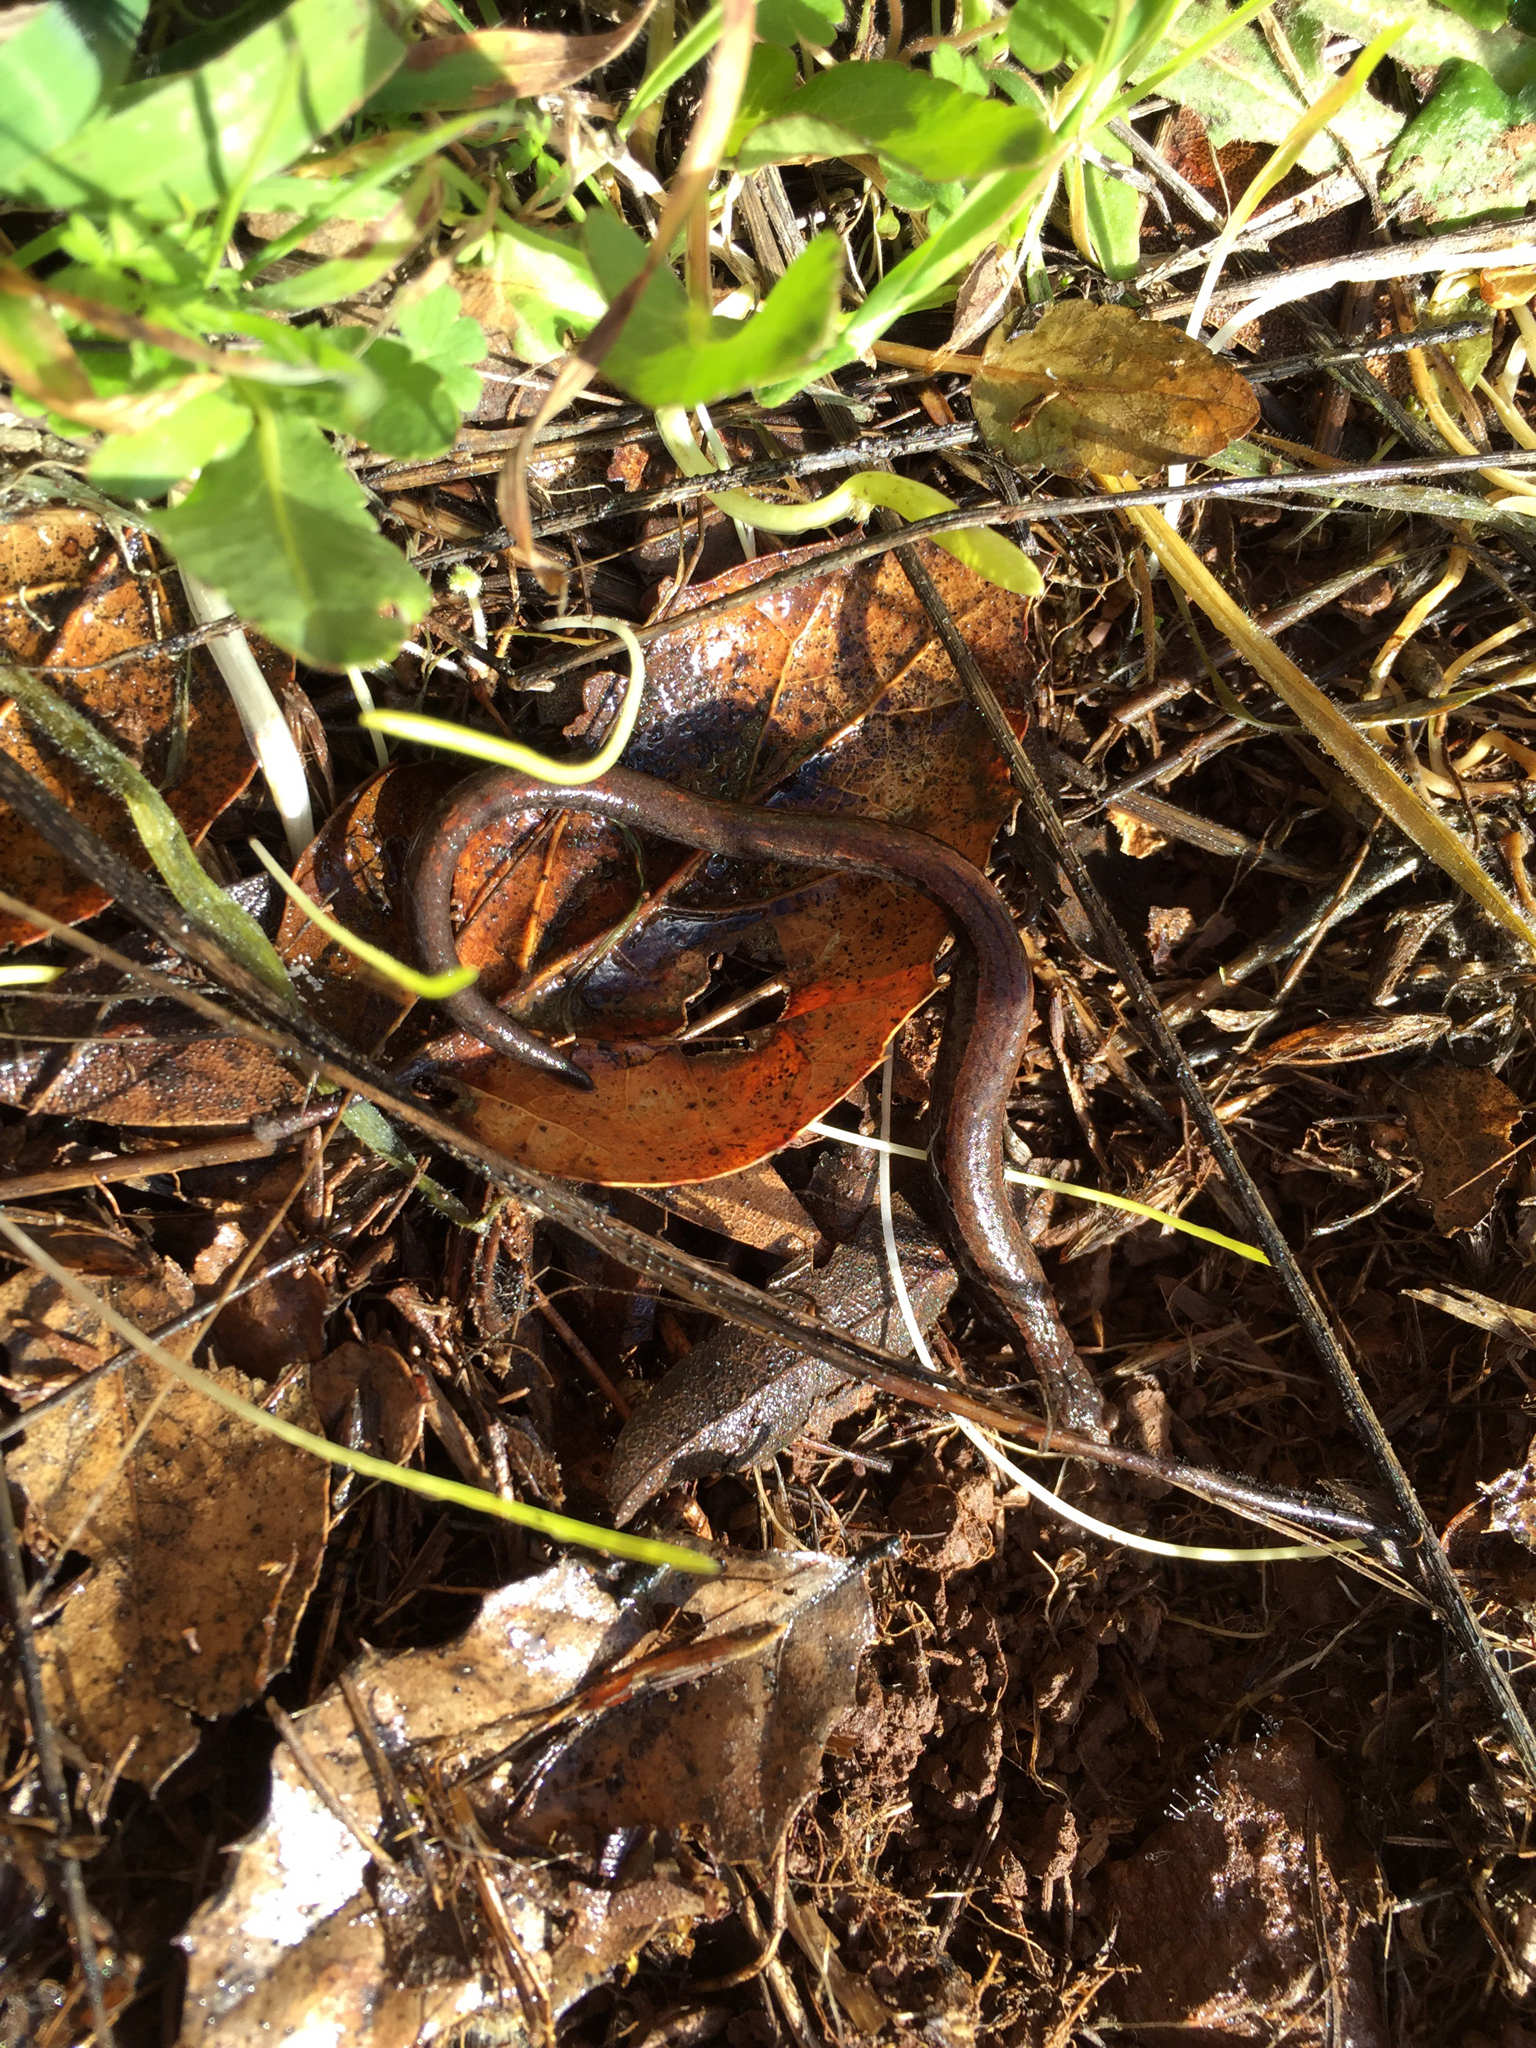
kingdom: Animalia
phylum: Chordata
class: Amphibia
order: Caudata
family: Plethodontidae
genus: Batrachoseps
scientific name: Batrachoseps attenuatus
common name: California slender salamander
